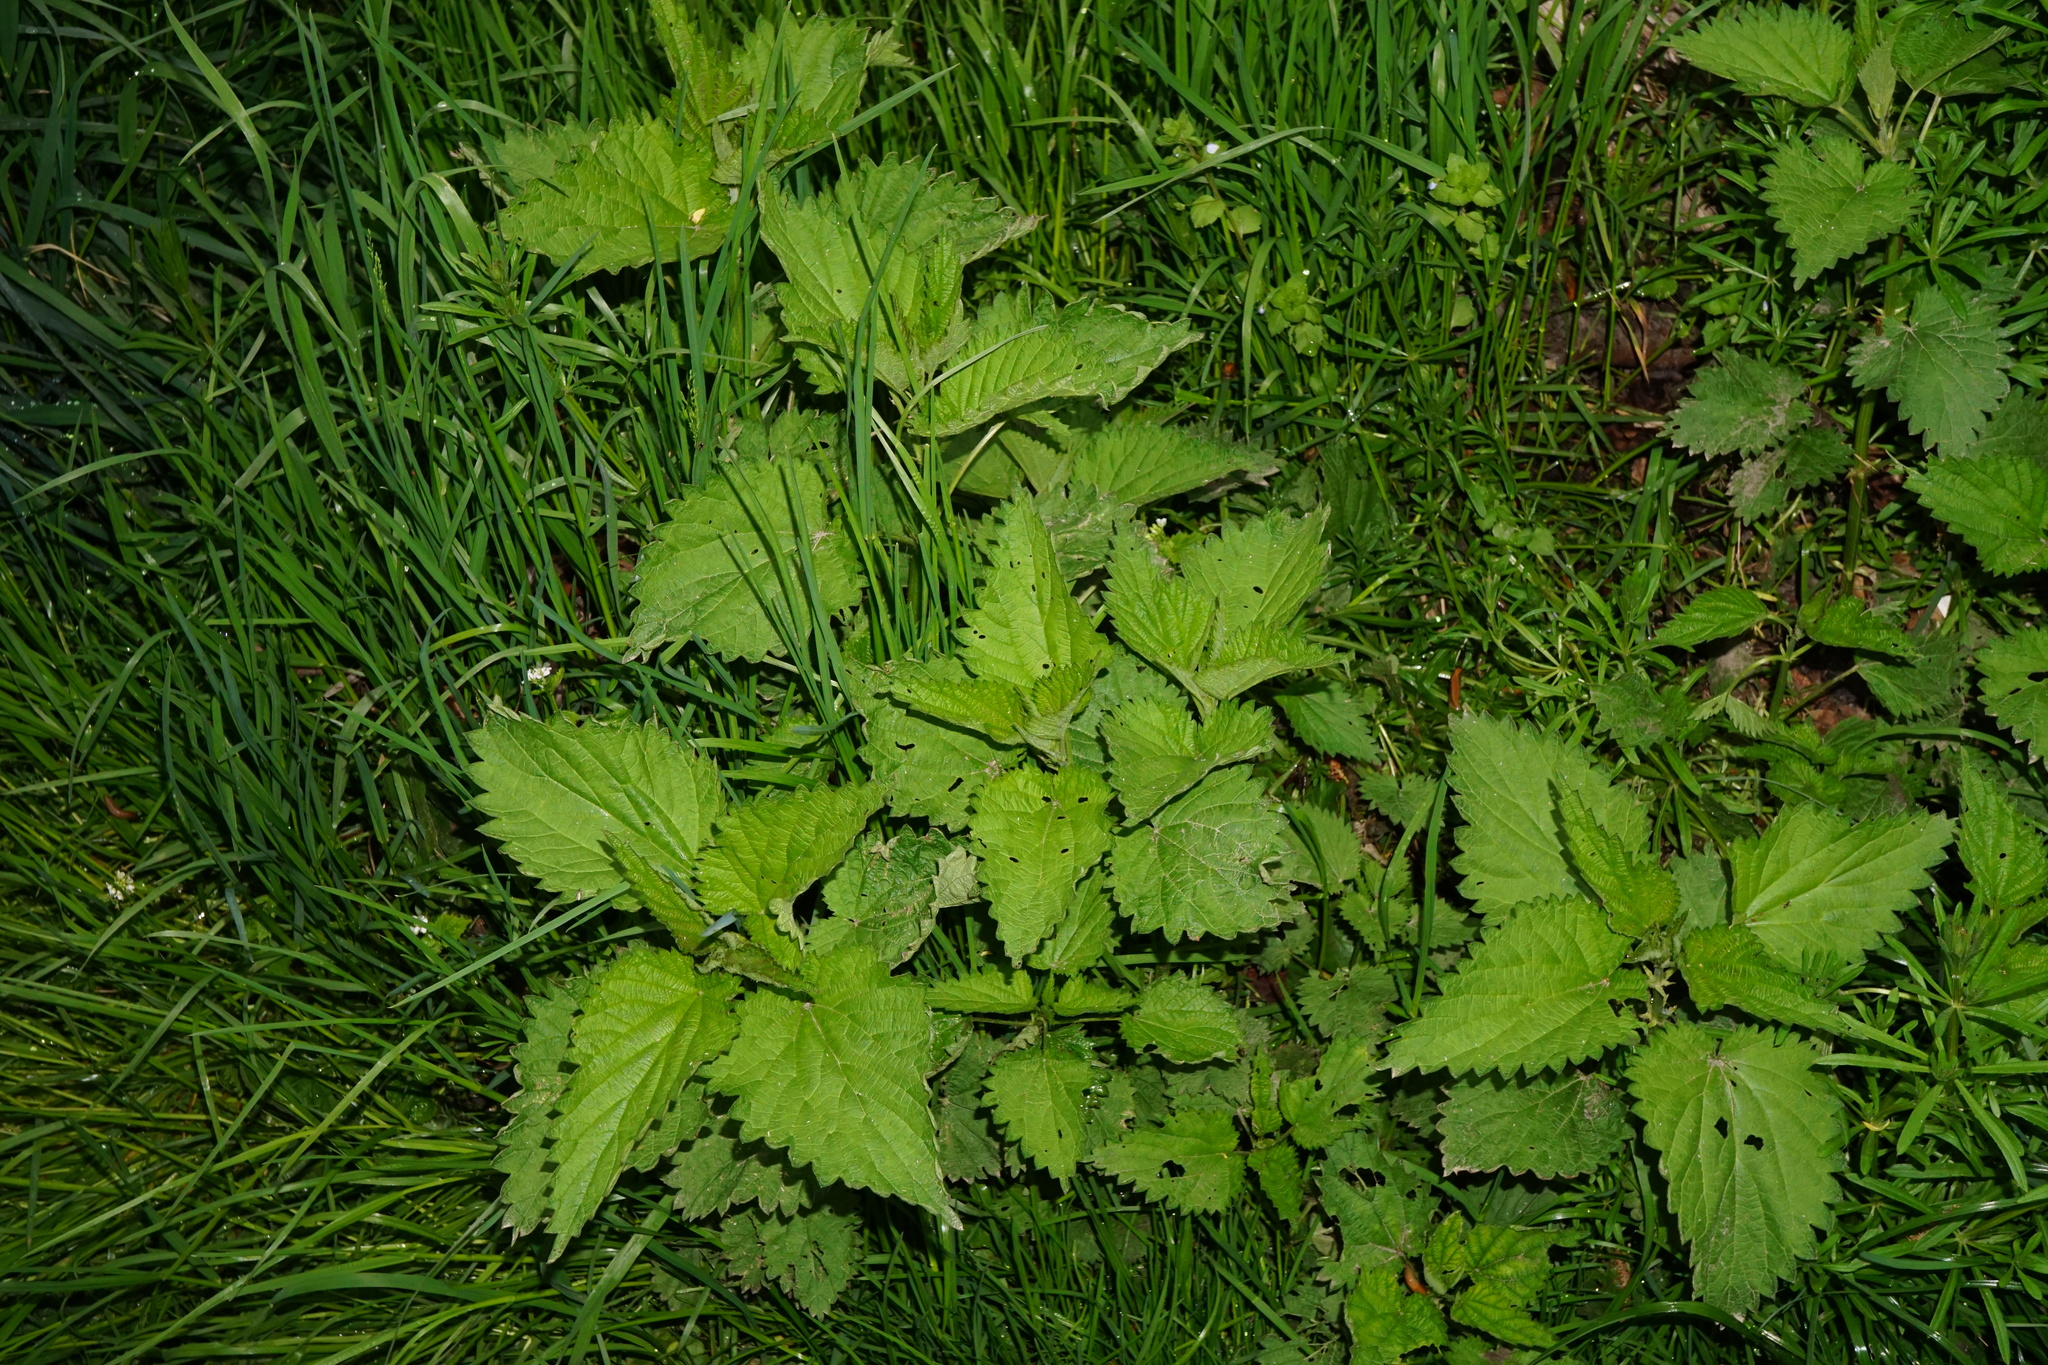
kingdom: Plantae
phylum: Tracheophyta
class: Magnoliopsida
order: Rosales
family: Urticaceae
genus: Urtica
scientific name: Urtica dioica
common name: Common nettle
